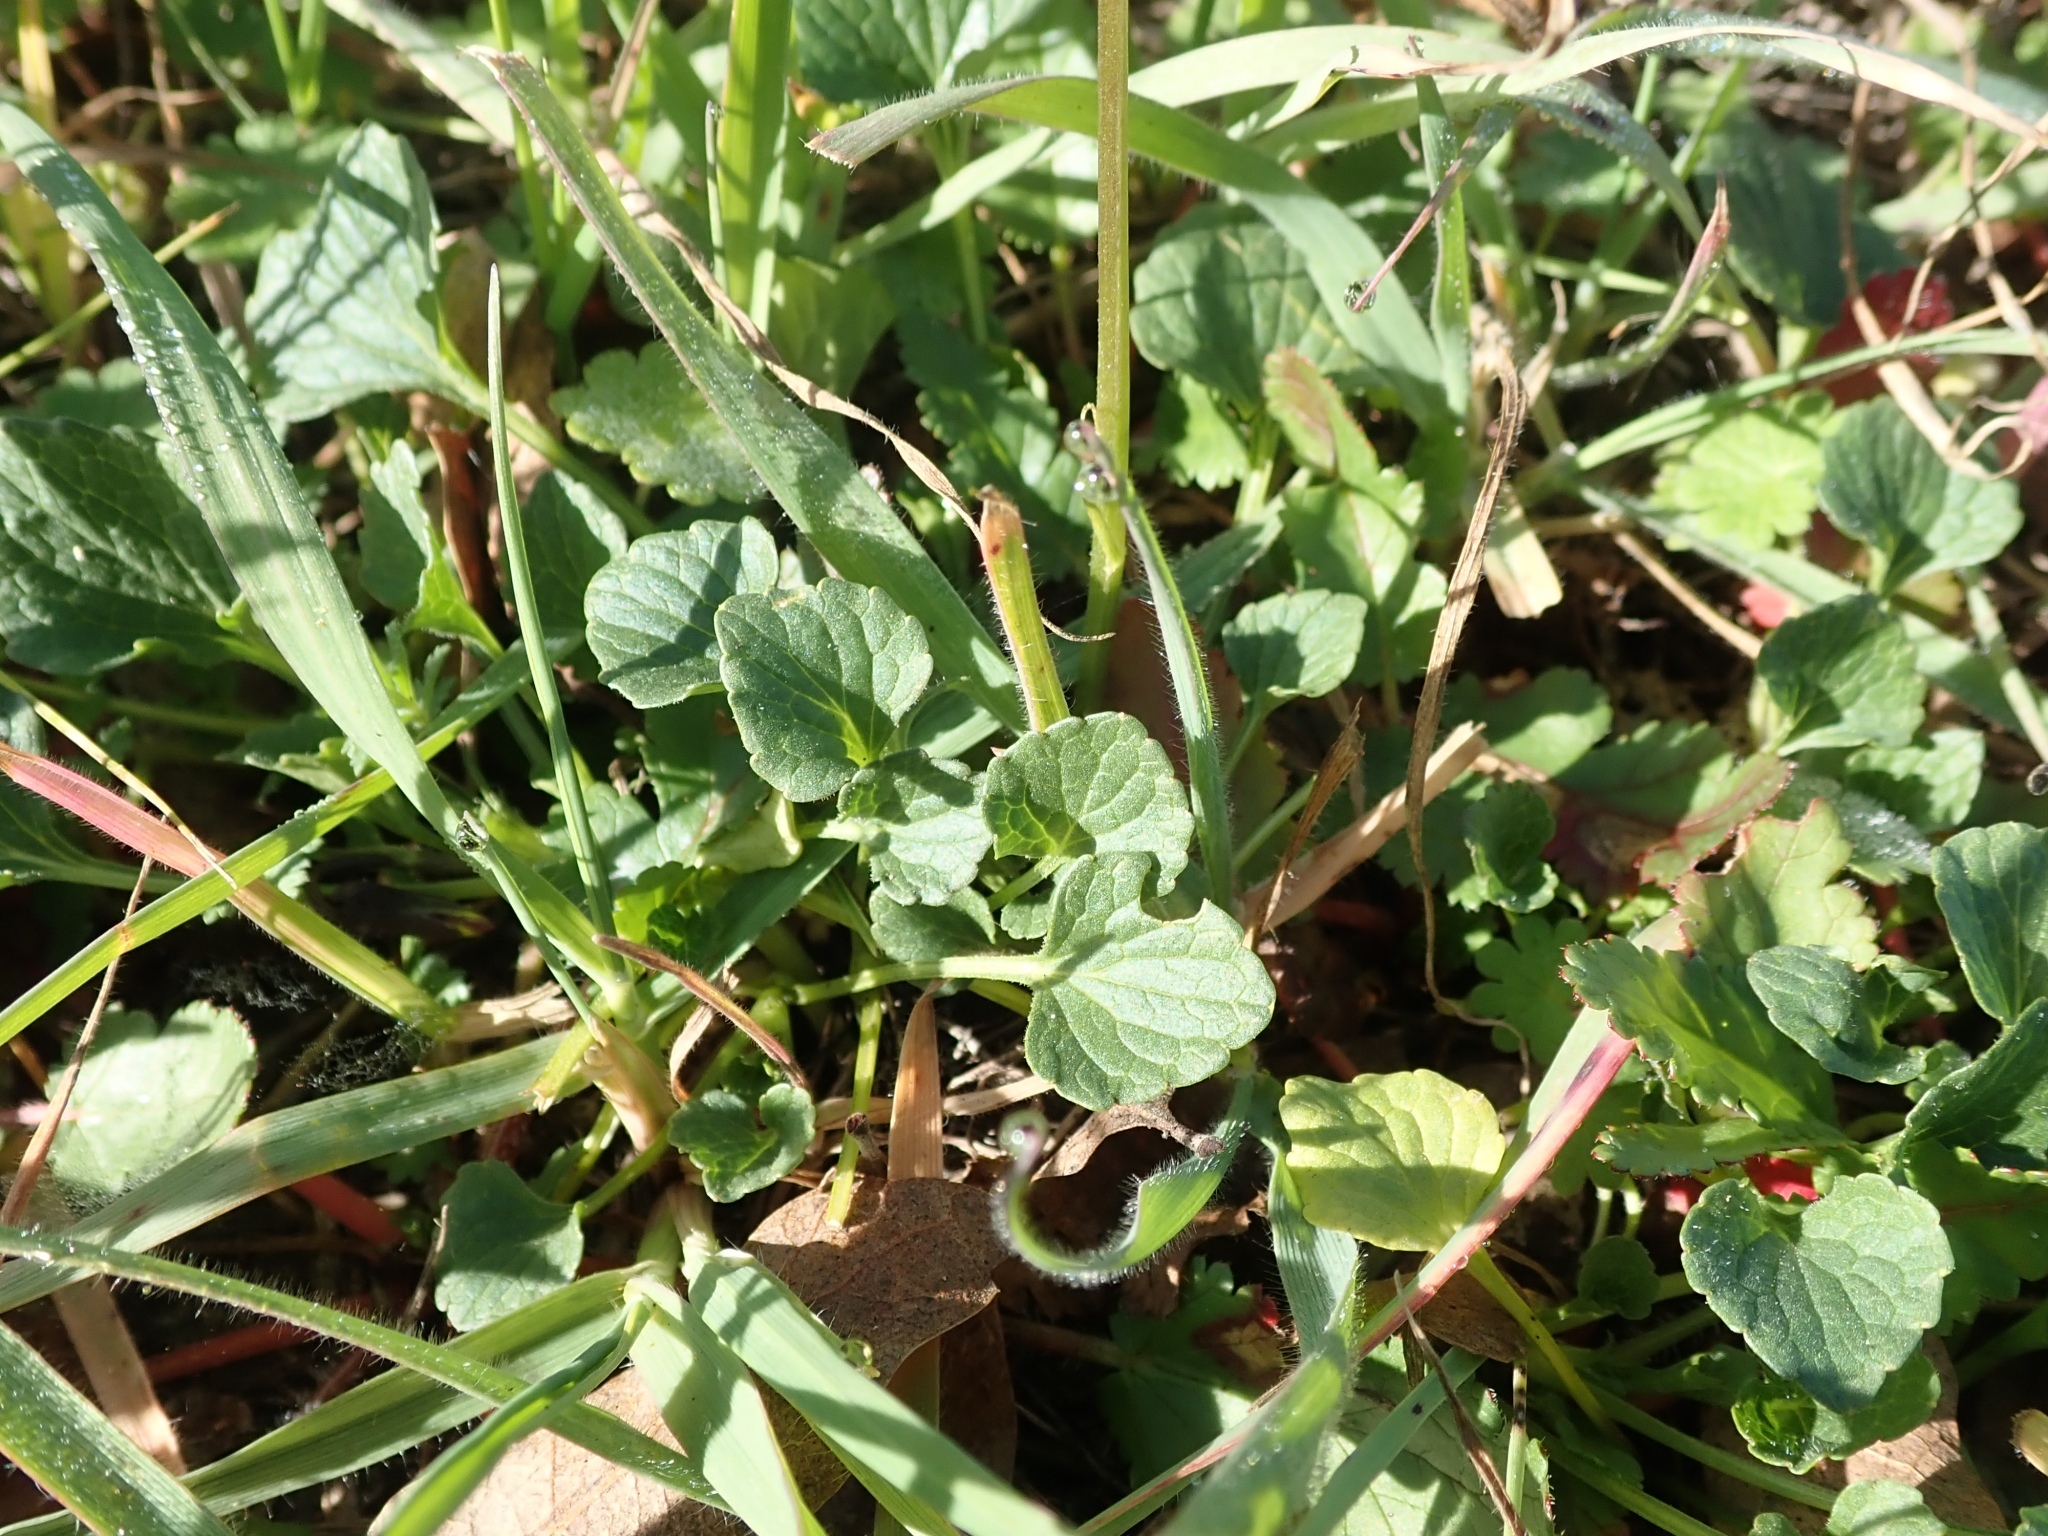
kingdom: Plantae
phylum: Tracheophyta
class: Magnoliopsida
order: Malpighiales
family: Violaceae
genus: Viola
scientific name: Viola pedunculata
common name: California golden violet
